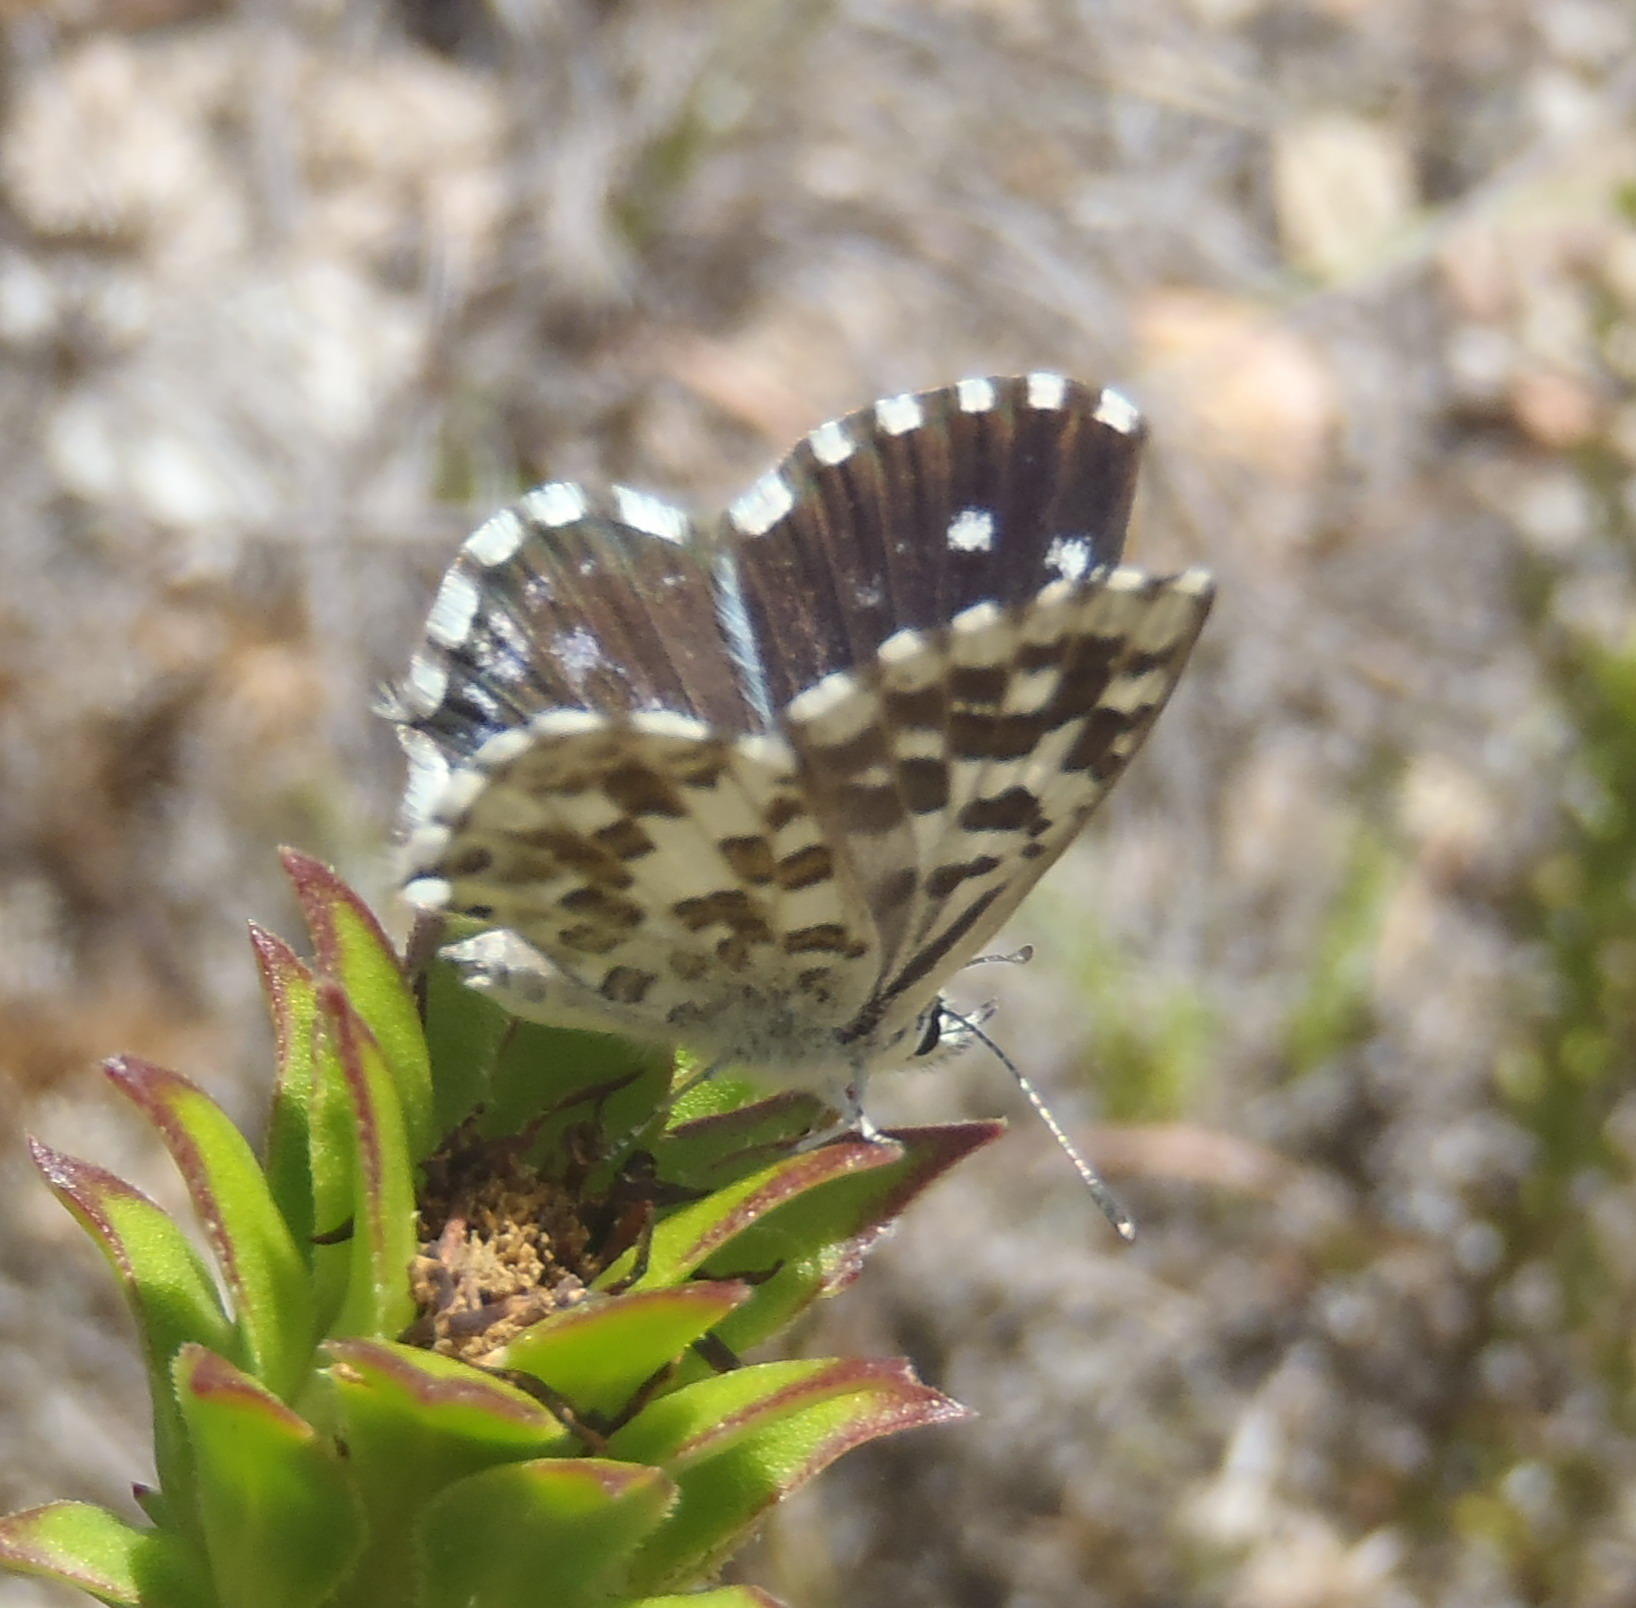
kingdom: Animalia
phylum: Arthropoda
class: Insecta
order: Lepidoptera
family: Lycaenidae
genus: Tarucus
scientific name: Tarucus thespis
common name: Vivid dotted blue
